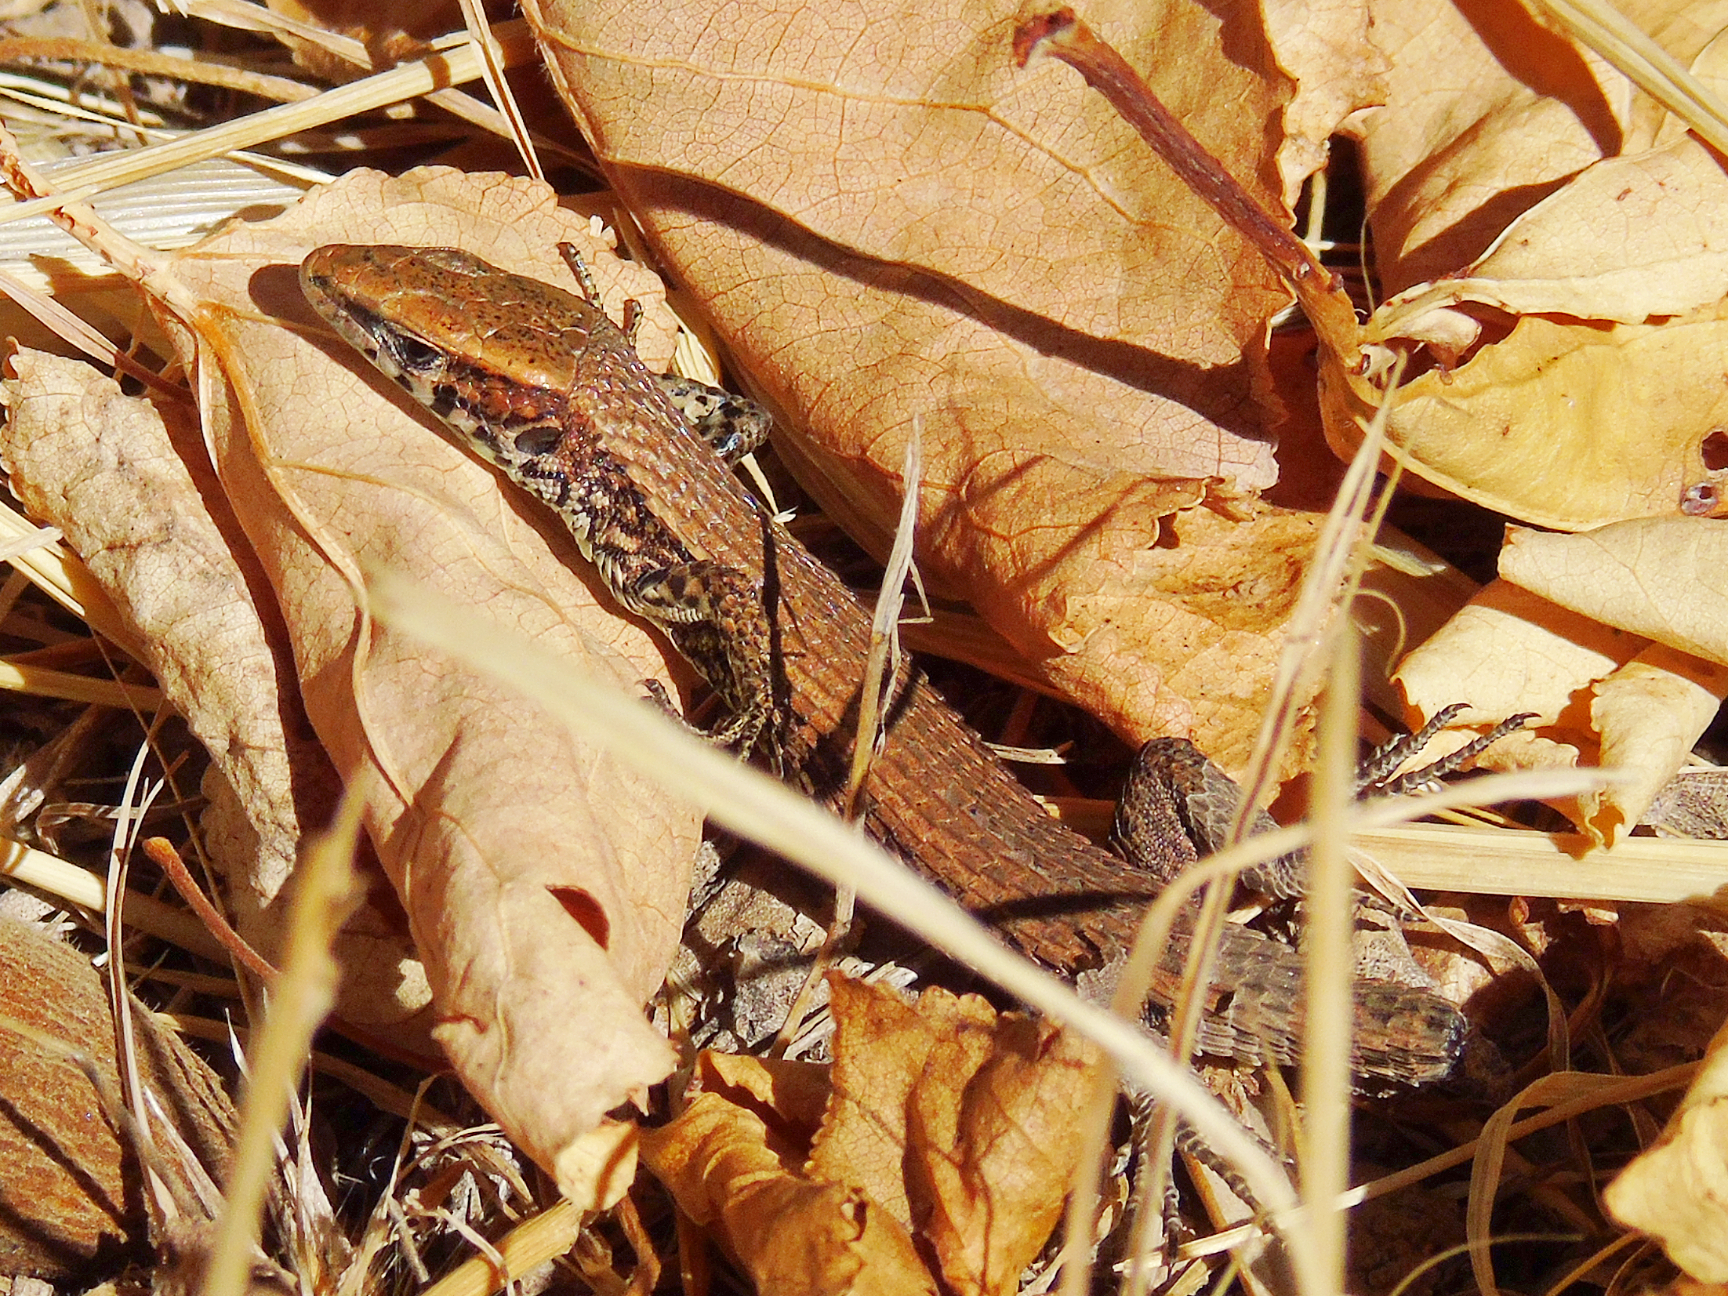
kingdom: Animalia
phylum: Chordata
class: Squamata
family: Lacertidae
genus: Algyroides
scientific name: Algyroides moreoticus
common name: Greek algyroides
